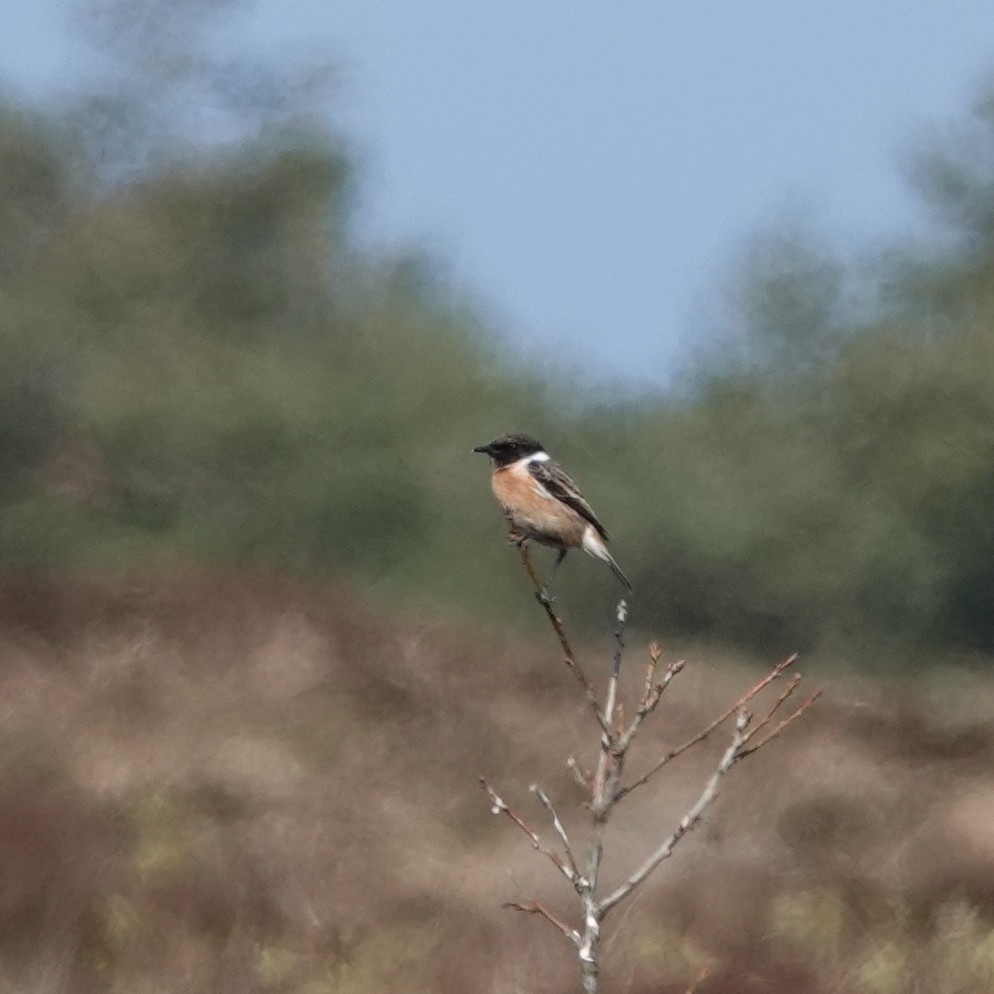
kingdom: Animalia
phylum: Chordata
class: Aves
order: Passeriformes
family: Muscicapidae
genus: Saxicola
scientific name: Saxicola rubicola
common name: European stonechat
